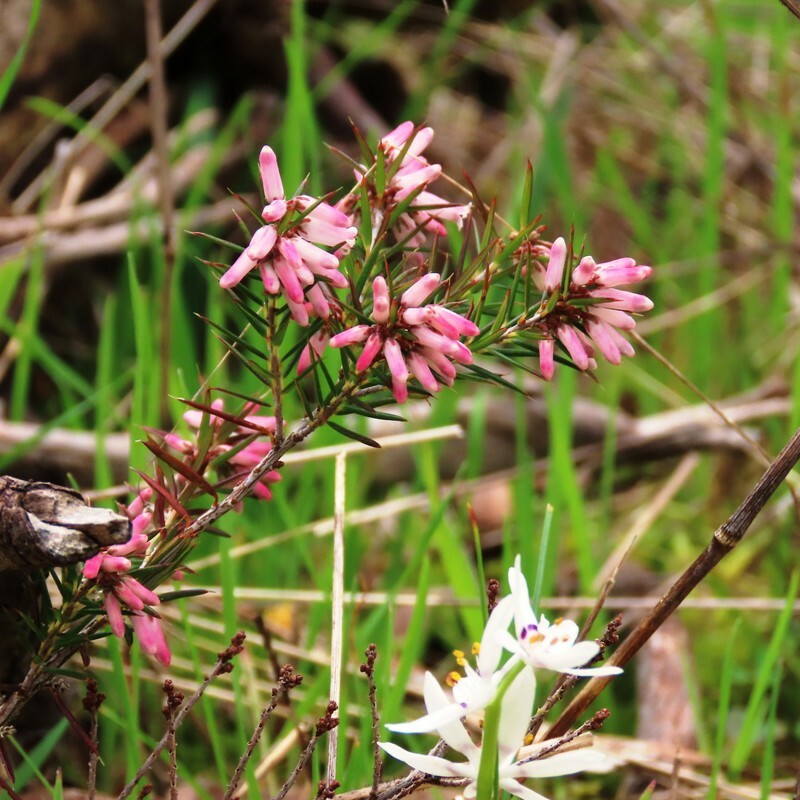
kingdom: Plantae
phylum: Tracheophyta
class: Magnoliopsida
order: Ericales
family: Ericaceae
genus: Lissanthe
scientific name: Lissanthe strigosa
